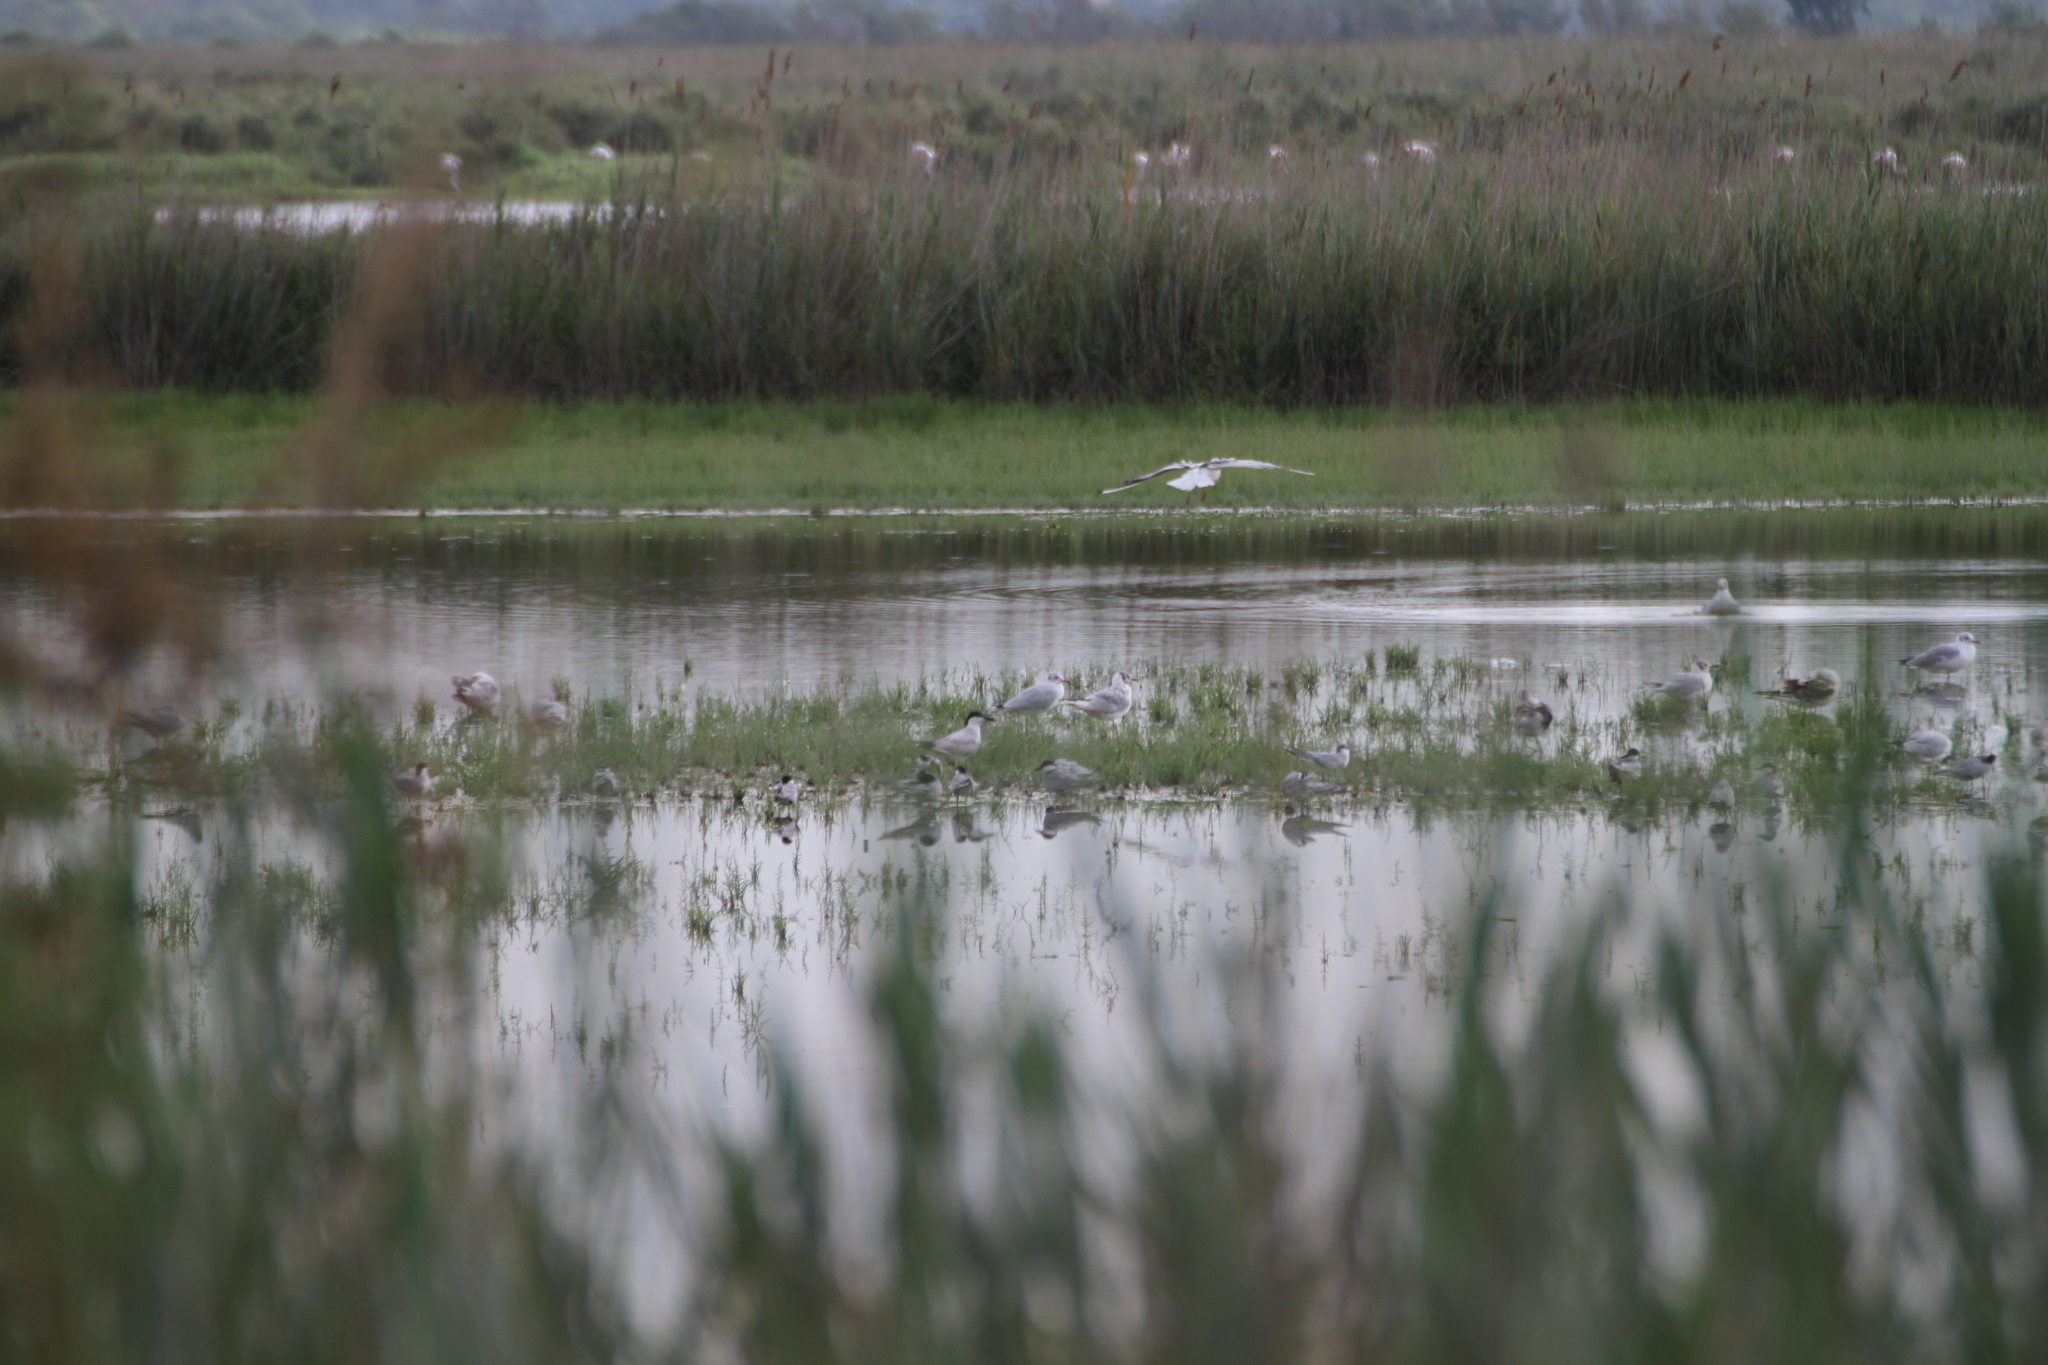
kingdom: Animalia
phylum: Chordata
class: Aves
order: Charadriiformes
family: Laridae
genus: Gelochelidon
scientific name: Gelochelidon nilotica
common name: Gull-billed tern
